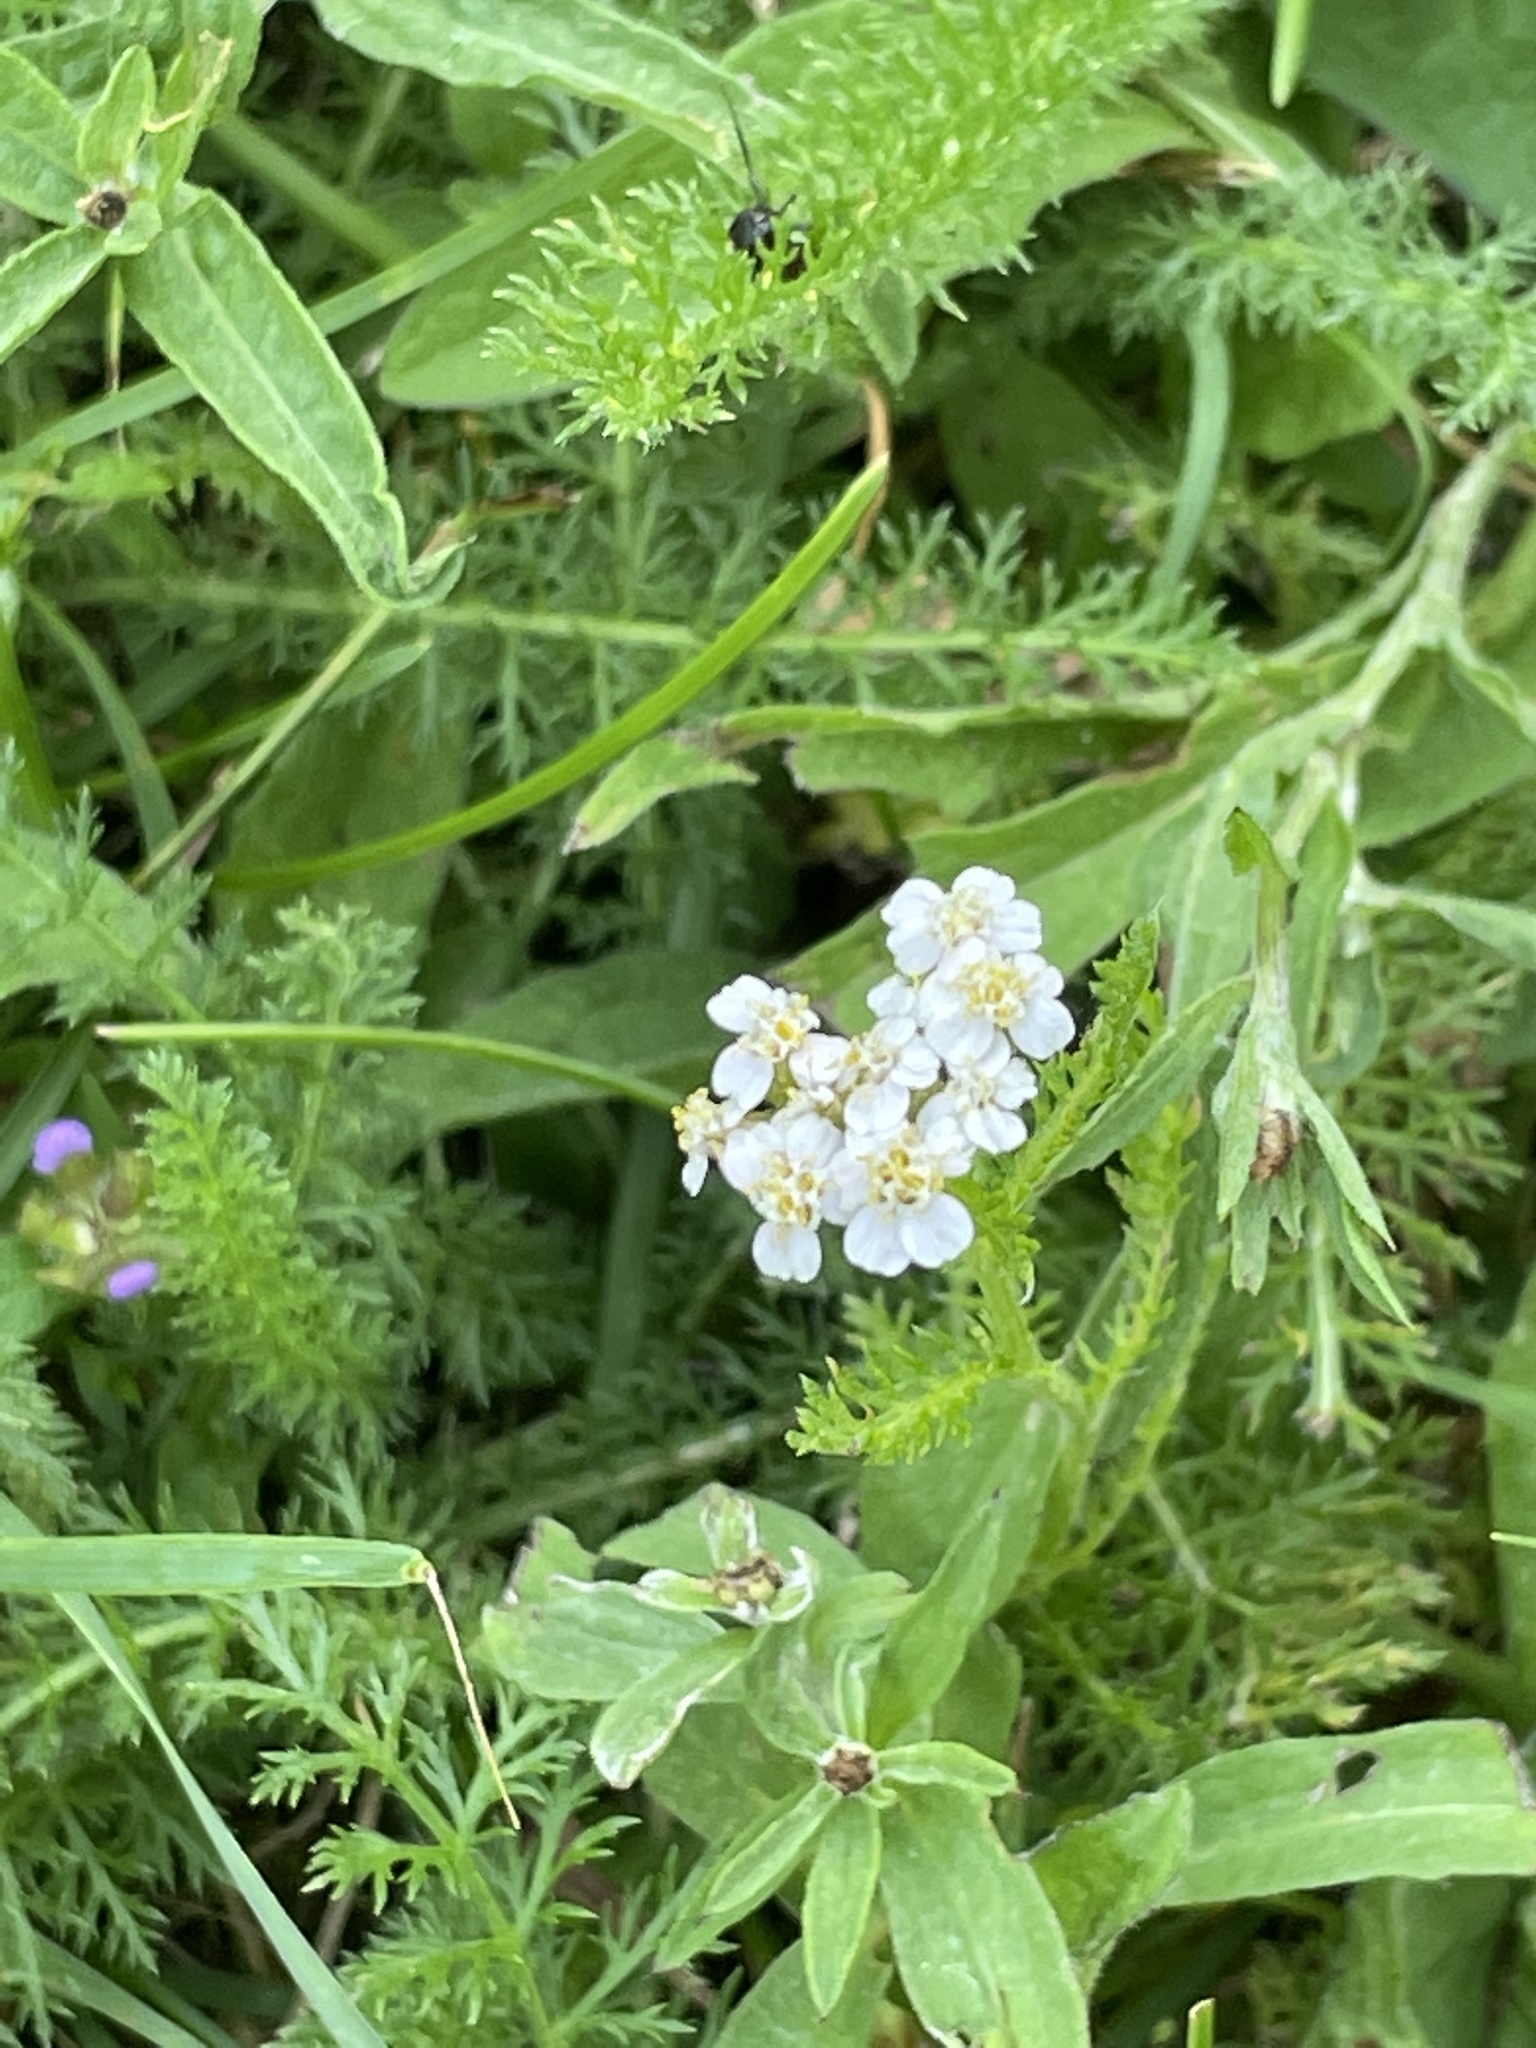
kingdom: Plantae
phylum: Tracheophyta
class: Magnoliopsida
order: Asterales
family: Asteraceae
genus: Achillea
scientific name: Achillea millefolium
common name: Yarrow
